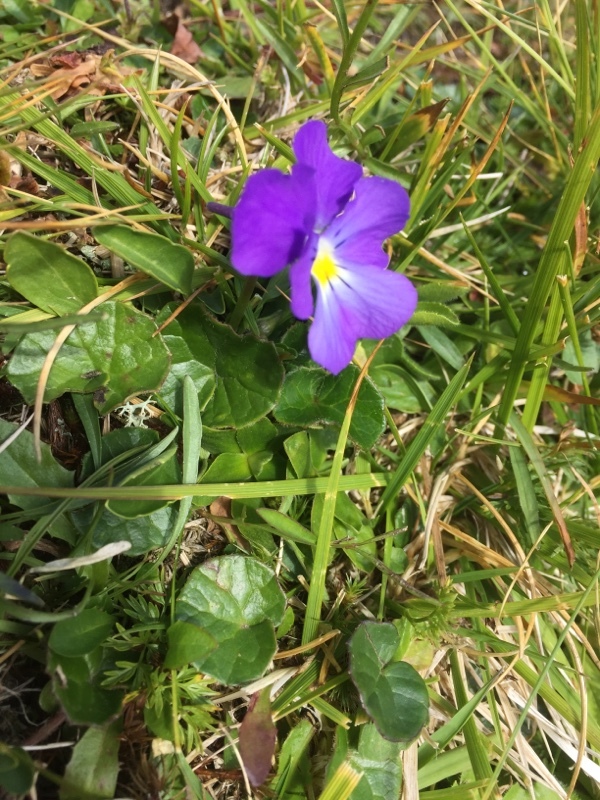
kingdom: Plantae
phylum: Tracheophyta
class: Magnoliopsida
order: Malpighiales
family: Violaceae
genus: Viola
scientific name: Viola calcarata
